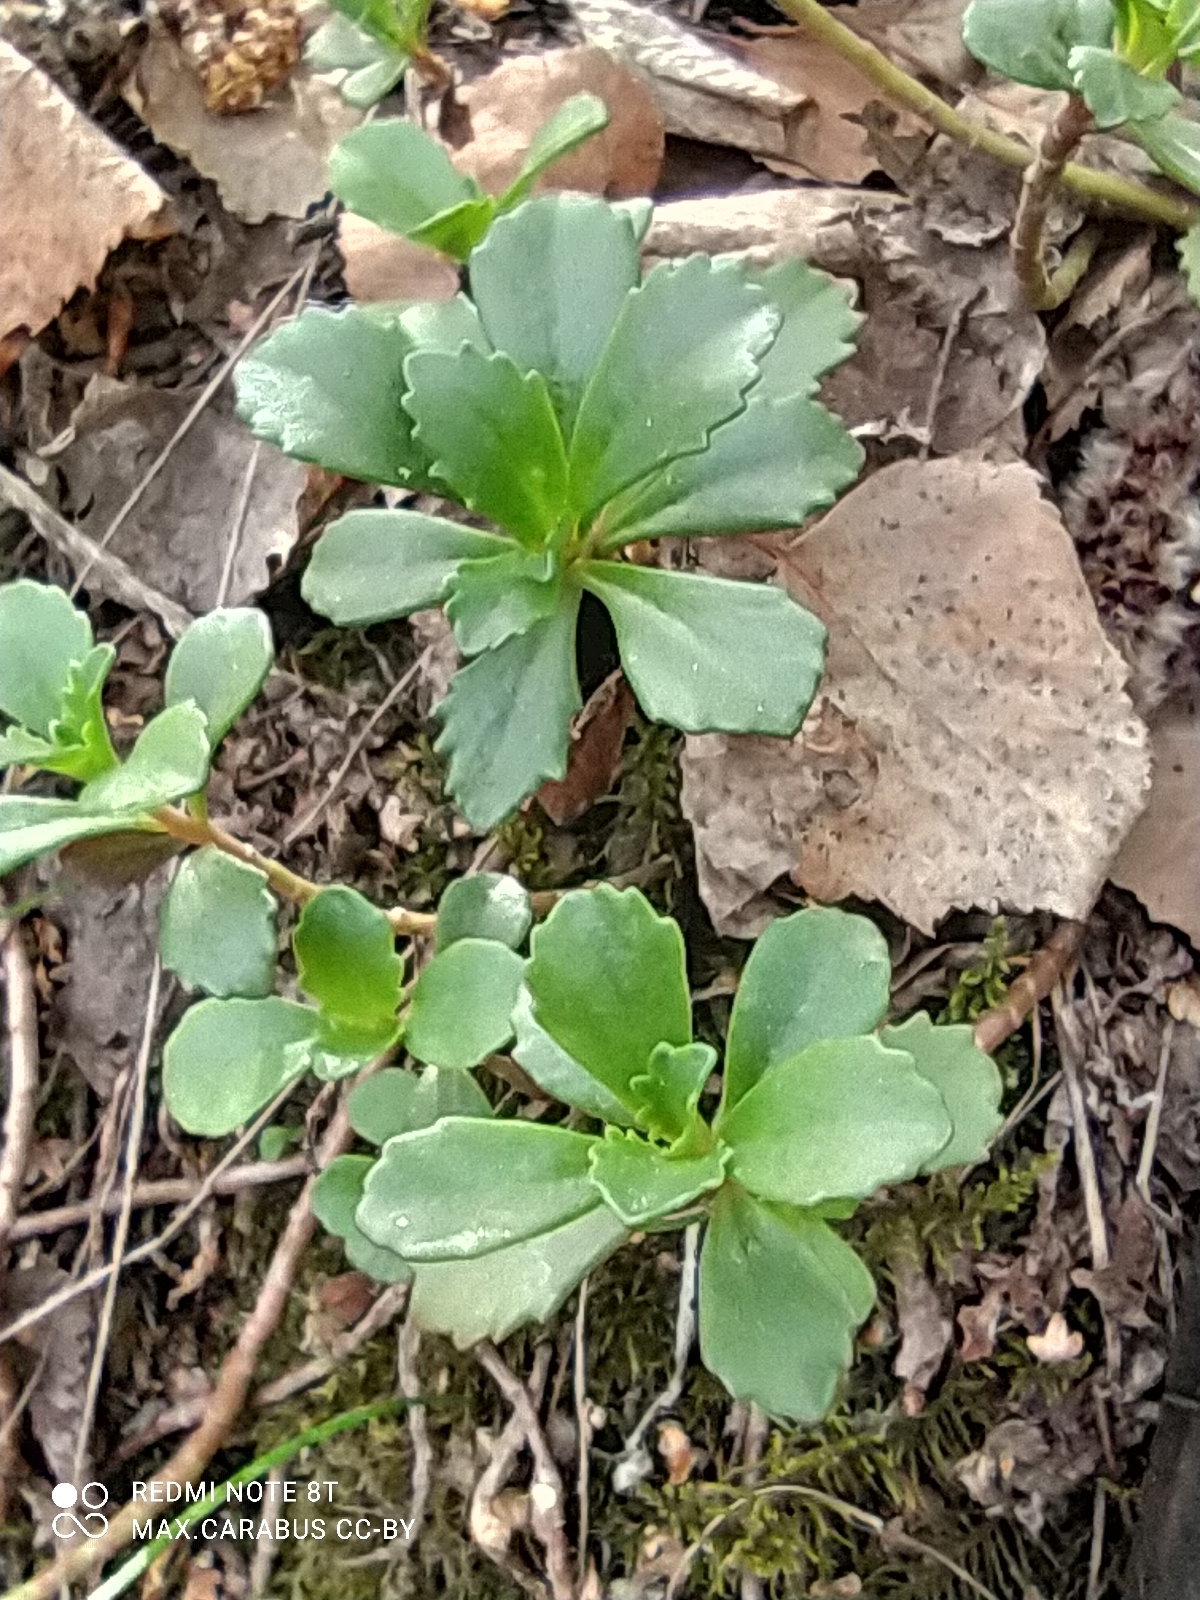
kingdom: Plantae
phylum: Tracheophyta
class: Magnoliopsida
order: Saxifragales
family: Crassulaceae
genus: Phedimus
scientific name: Phedimus hybridus
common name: Hybrid stonecrop
